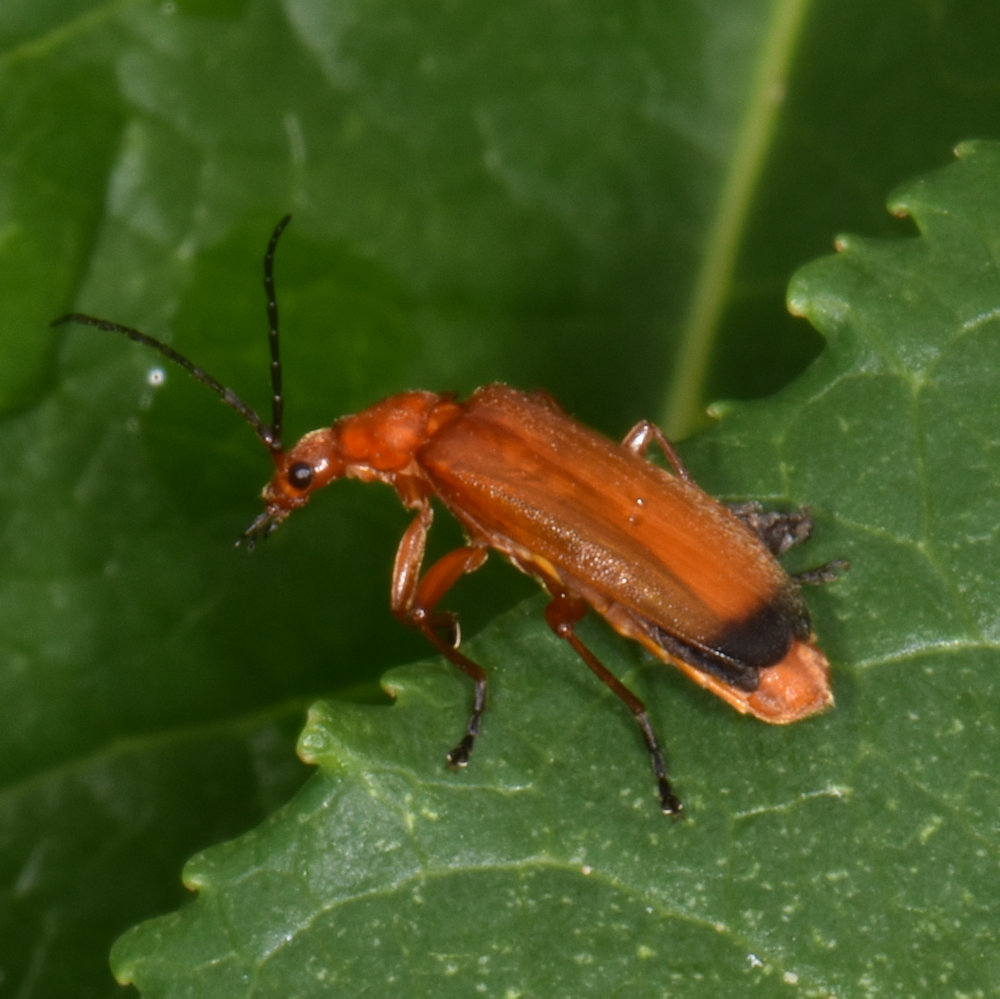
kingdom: Animalia
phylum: Arthropoda
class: Insecta
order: Coleoptera
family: Cantharidae
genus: Rhagonycha
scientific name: Rhagonycha fulva
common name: Common red soldier beetle
